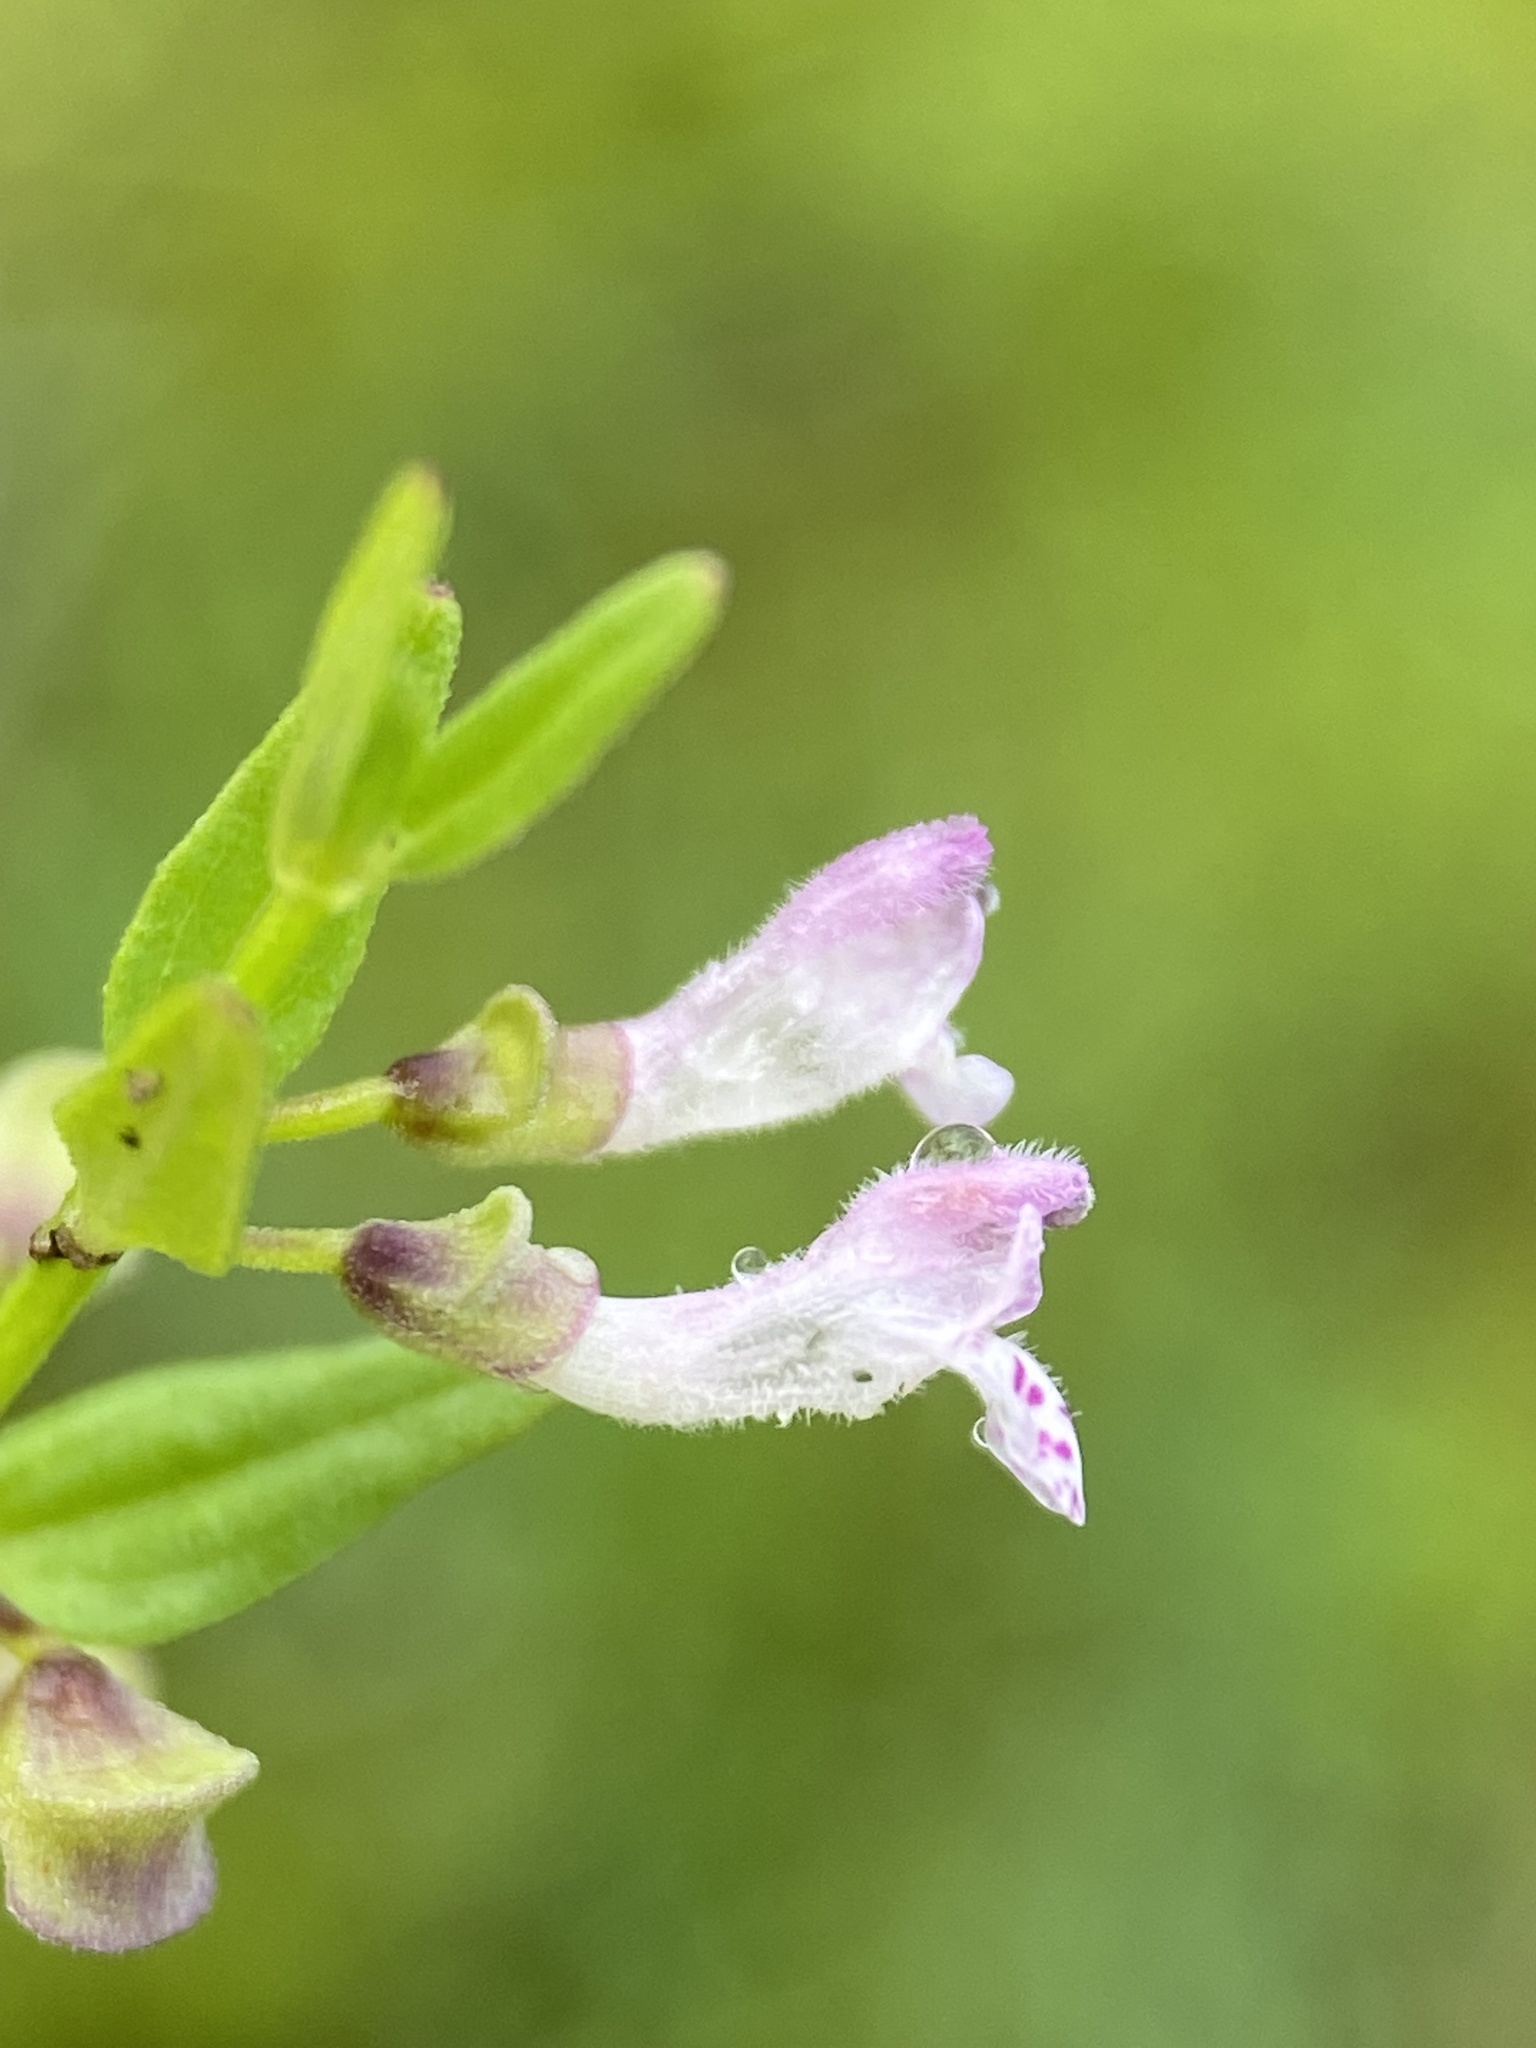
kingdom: Plantae
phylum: Tracheophyta
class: Magnoliopsida
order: Lamiales
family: Lamiaceae
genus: Scutellaria
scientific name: Scutellaria racemosa
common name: South american skullcap
